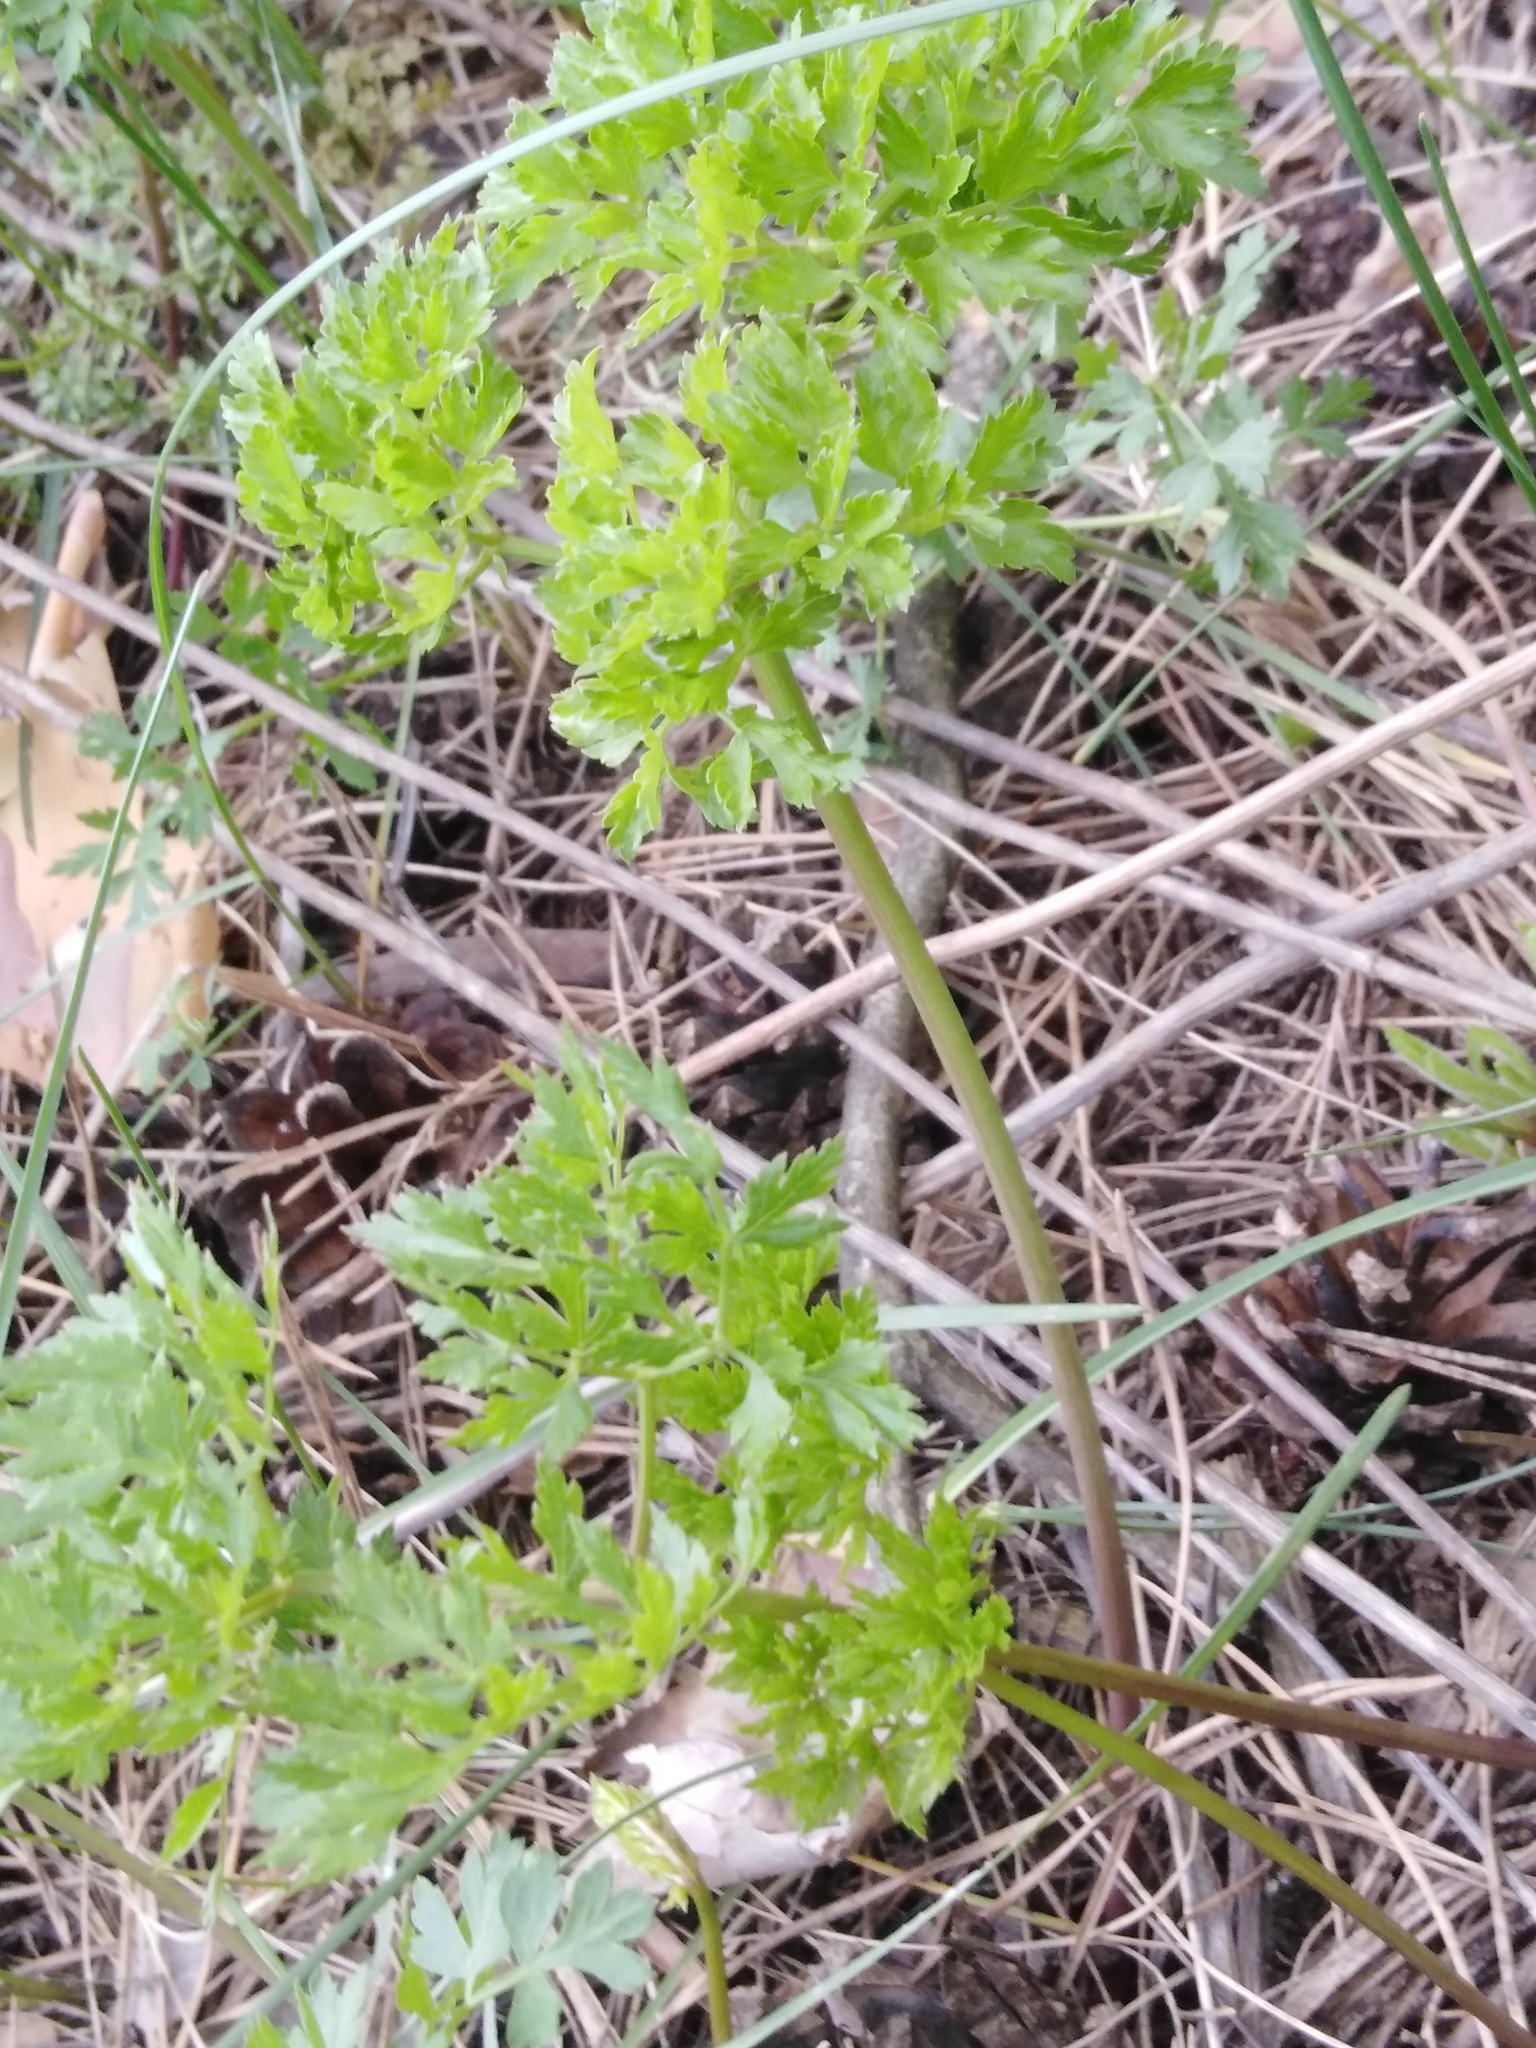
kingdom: Plantae
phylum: Tracheophyta
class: Magnoliopsida
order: Apiales
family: Apiaceae
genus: Oreoselinum
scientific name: Oreoselinum nigrum
